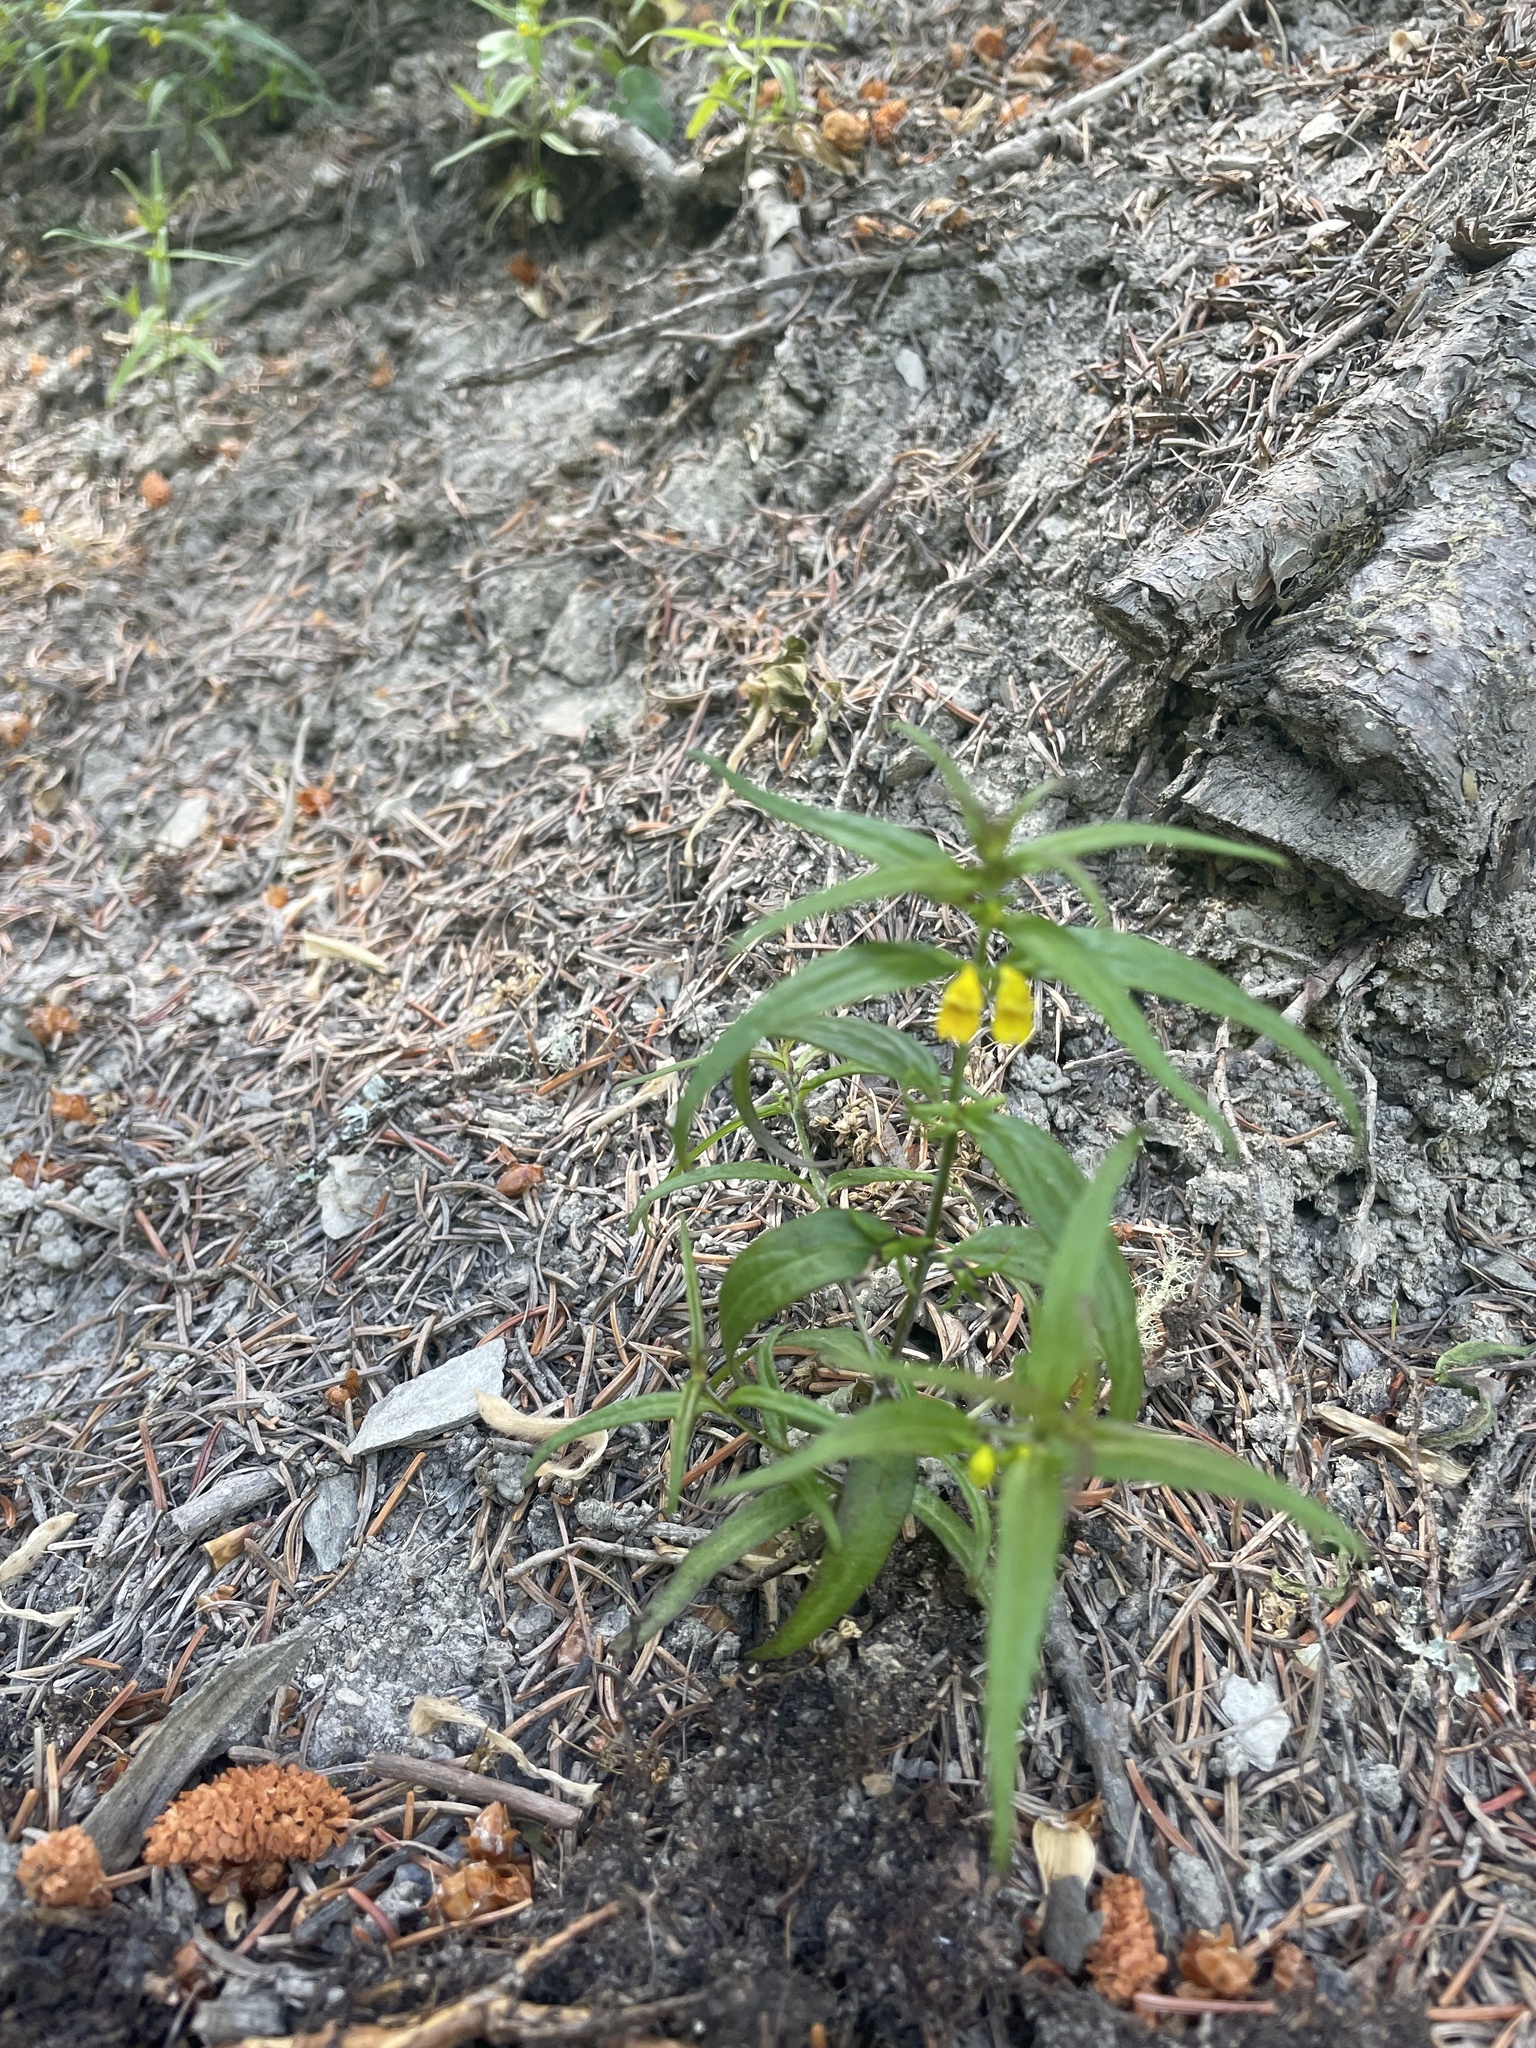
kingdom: Plantae
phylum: Tracheophyta
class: Magnoliopsida
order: Lamiales
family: Orobanchaceae
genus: Melampyrum
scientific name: Melampyrum sylvaticum
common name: Small cow-wheat
